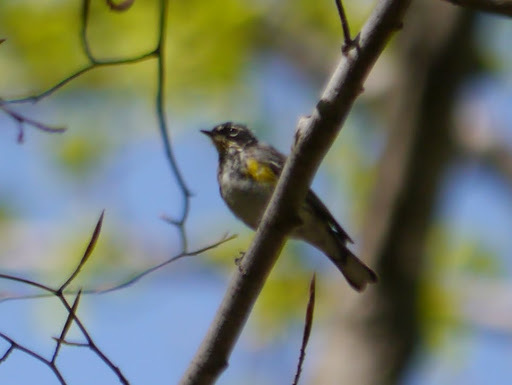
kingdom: Animalia
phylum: Chordata
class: Aves
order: Passeriformes
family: Parulidae
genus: Setophaga
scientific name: Setophaga coronata
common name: Myrtle warbler
